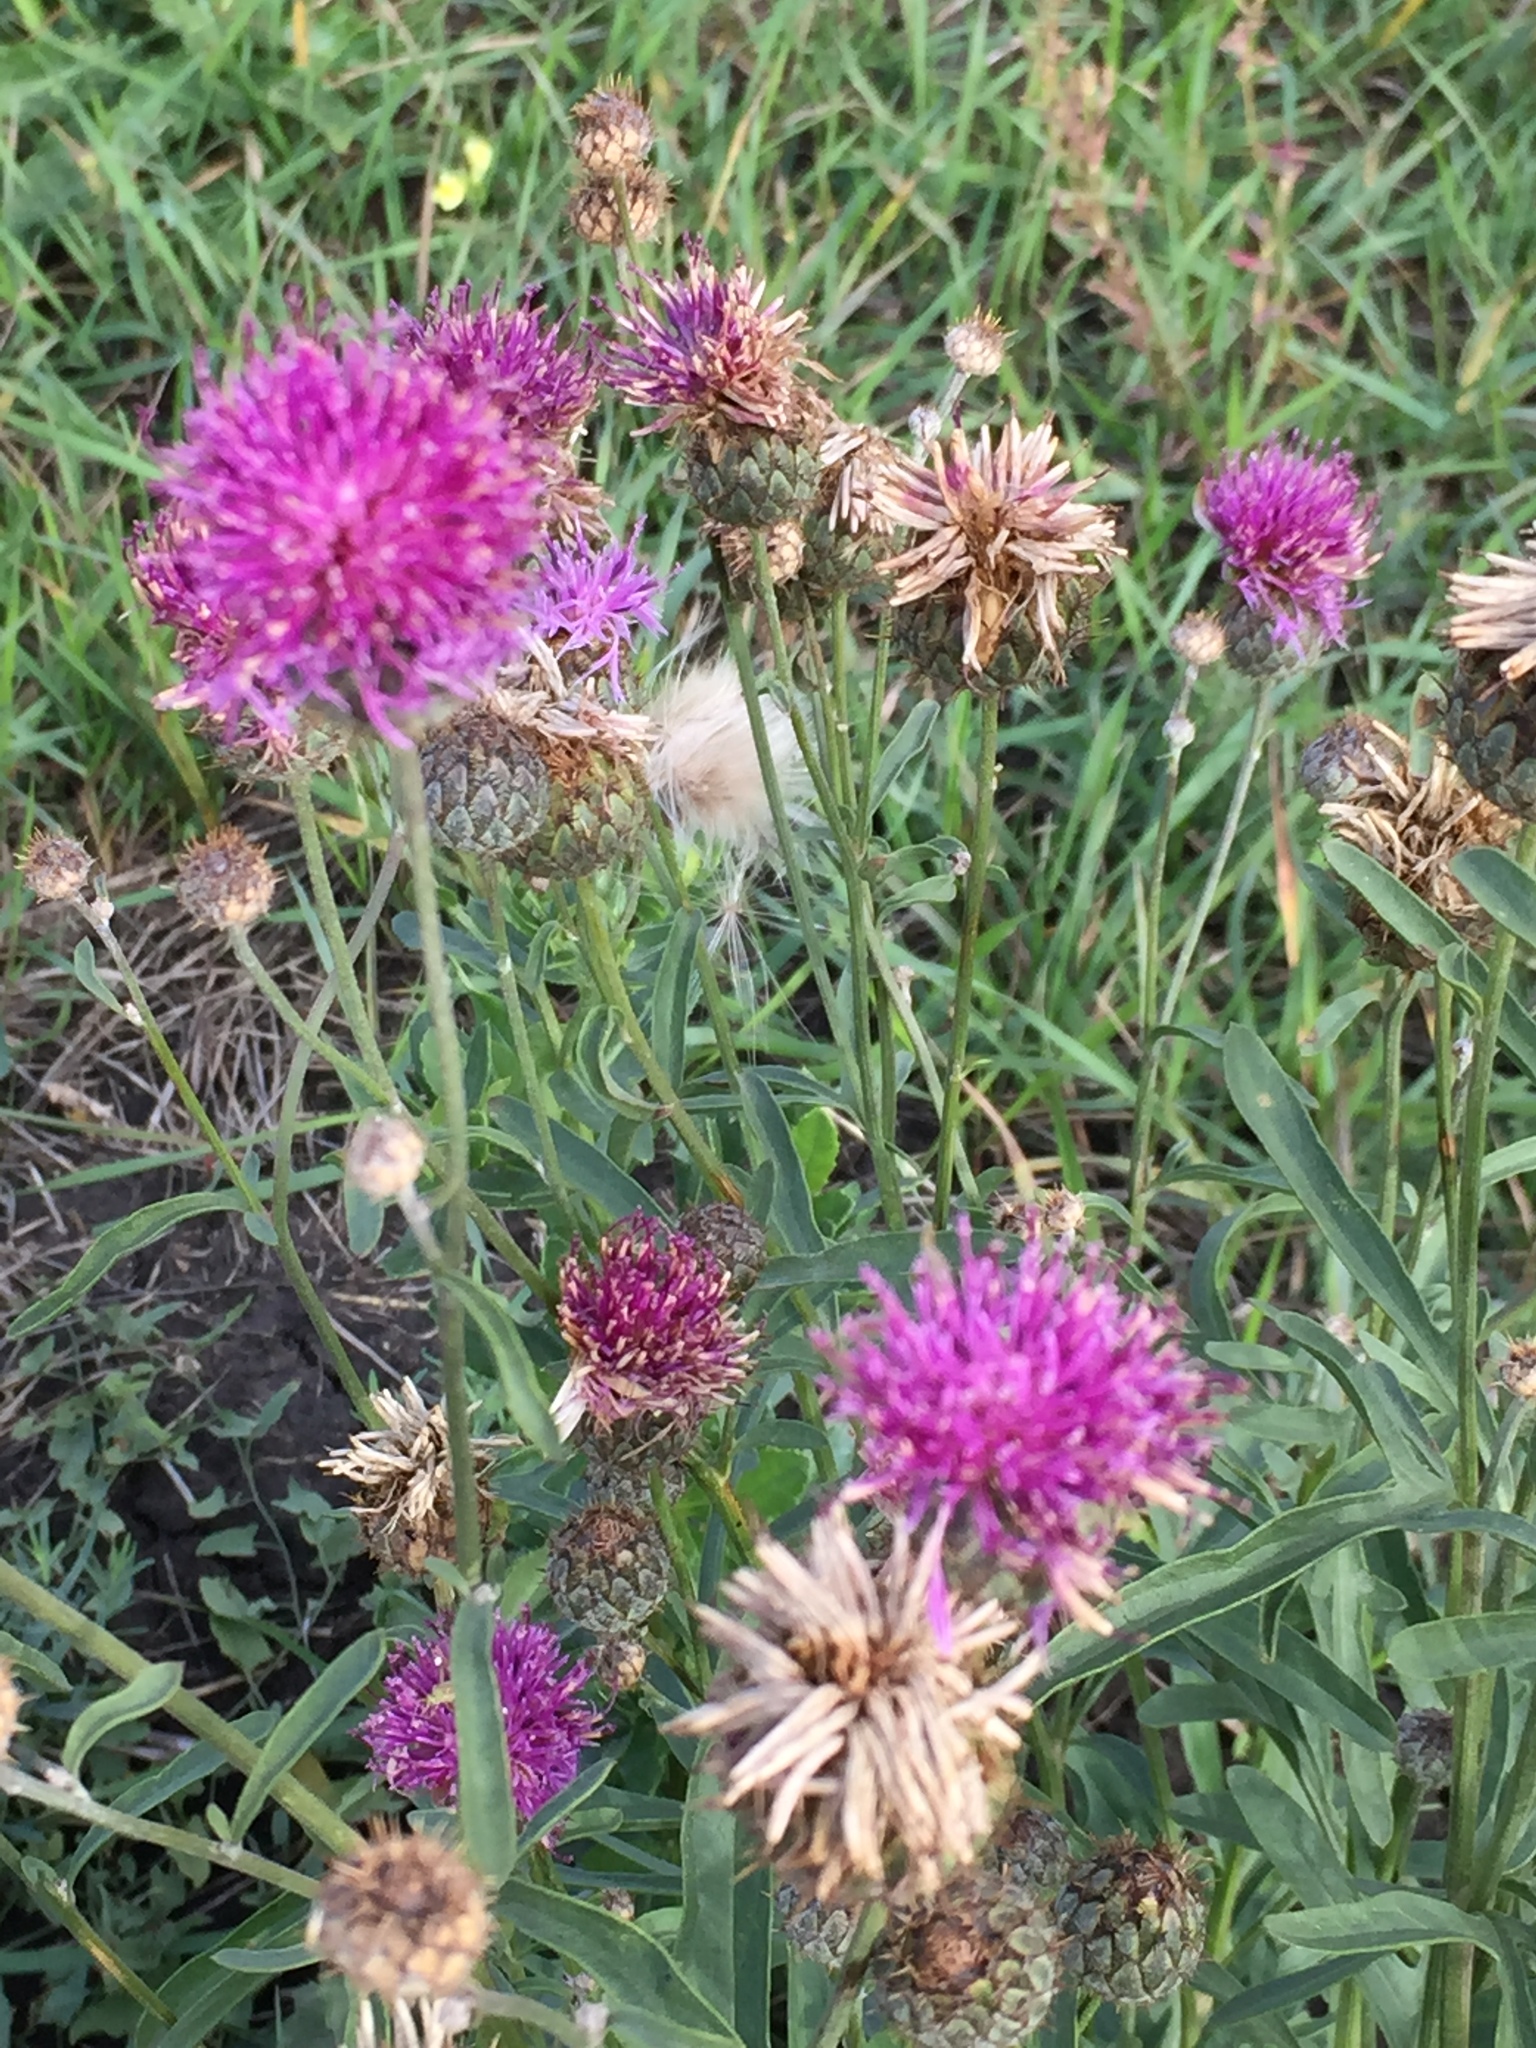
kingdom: Plantae
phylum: Tracheophyta
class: Magnoliopsida
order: Asterales
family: Asteraceae
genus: Centaurea
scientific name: Centaurea scabiosa
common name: Greater knapweed
